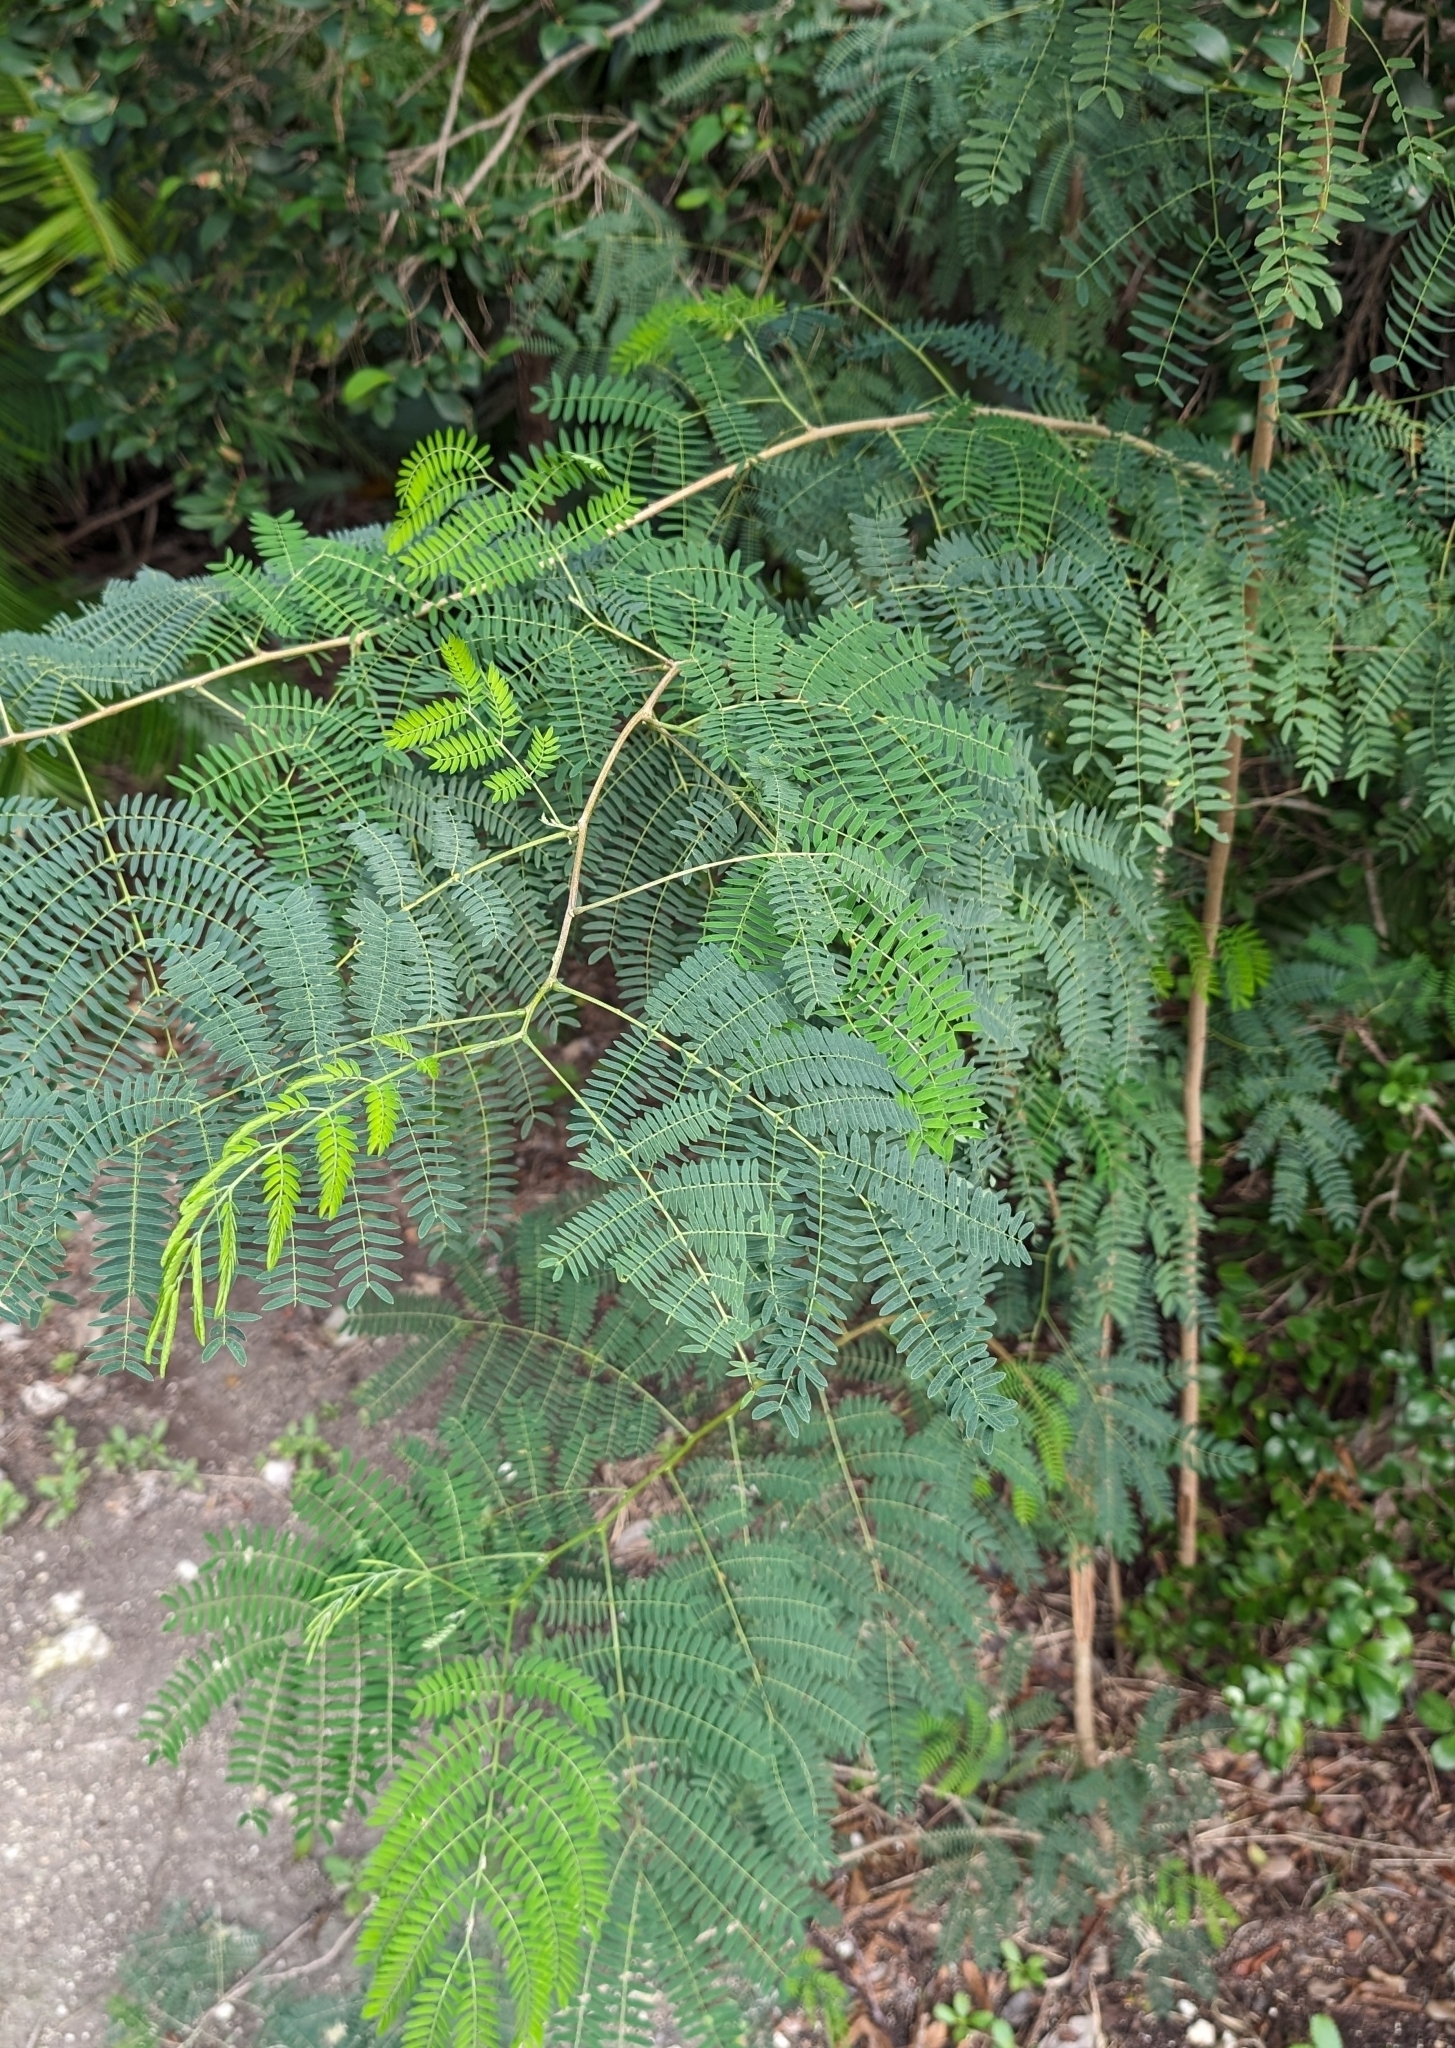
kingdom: Plantae
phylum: Tracheophyta
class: Magnoliopsida
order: Fabales
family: Fabaceae
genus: Leucaena
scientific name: Leucaena leucocephala
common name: White leadtree
